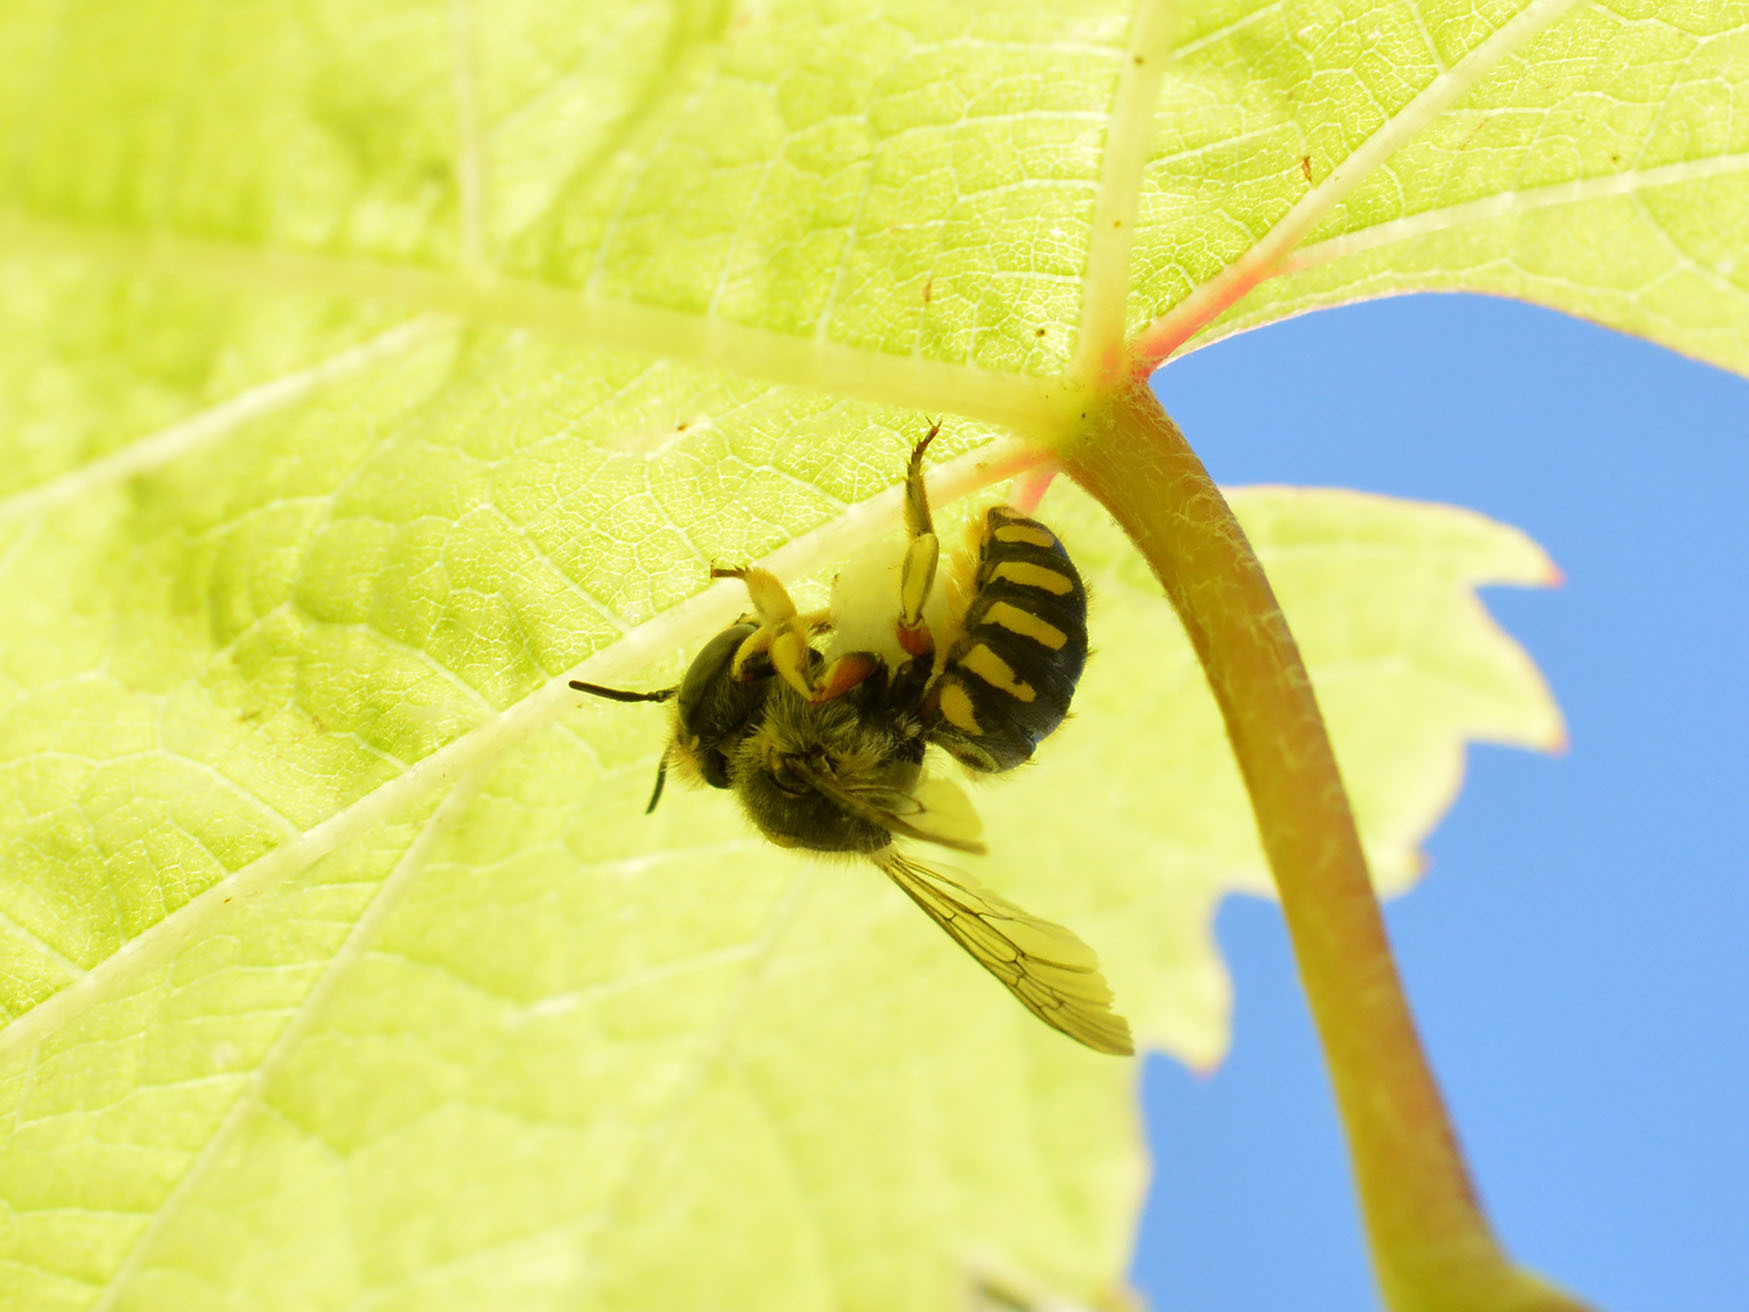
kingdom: Animalia
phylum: Arthropoda
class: Insecta
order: Hymenoptera
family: Megachilidae
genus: Anthidium
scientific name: Anthidium manicatum
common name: Wool carder bee
